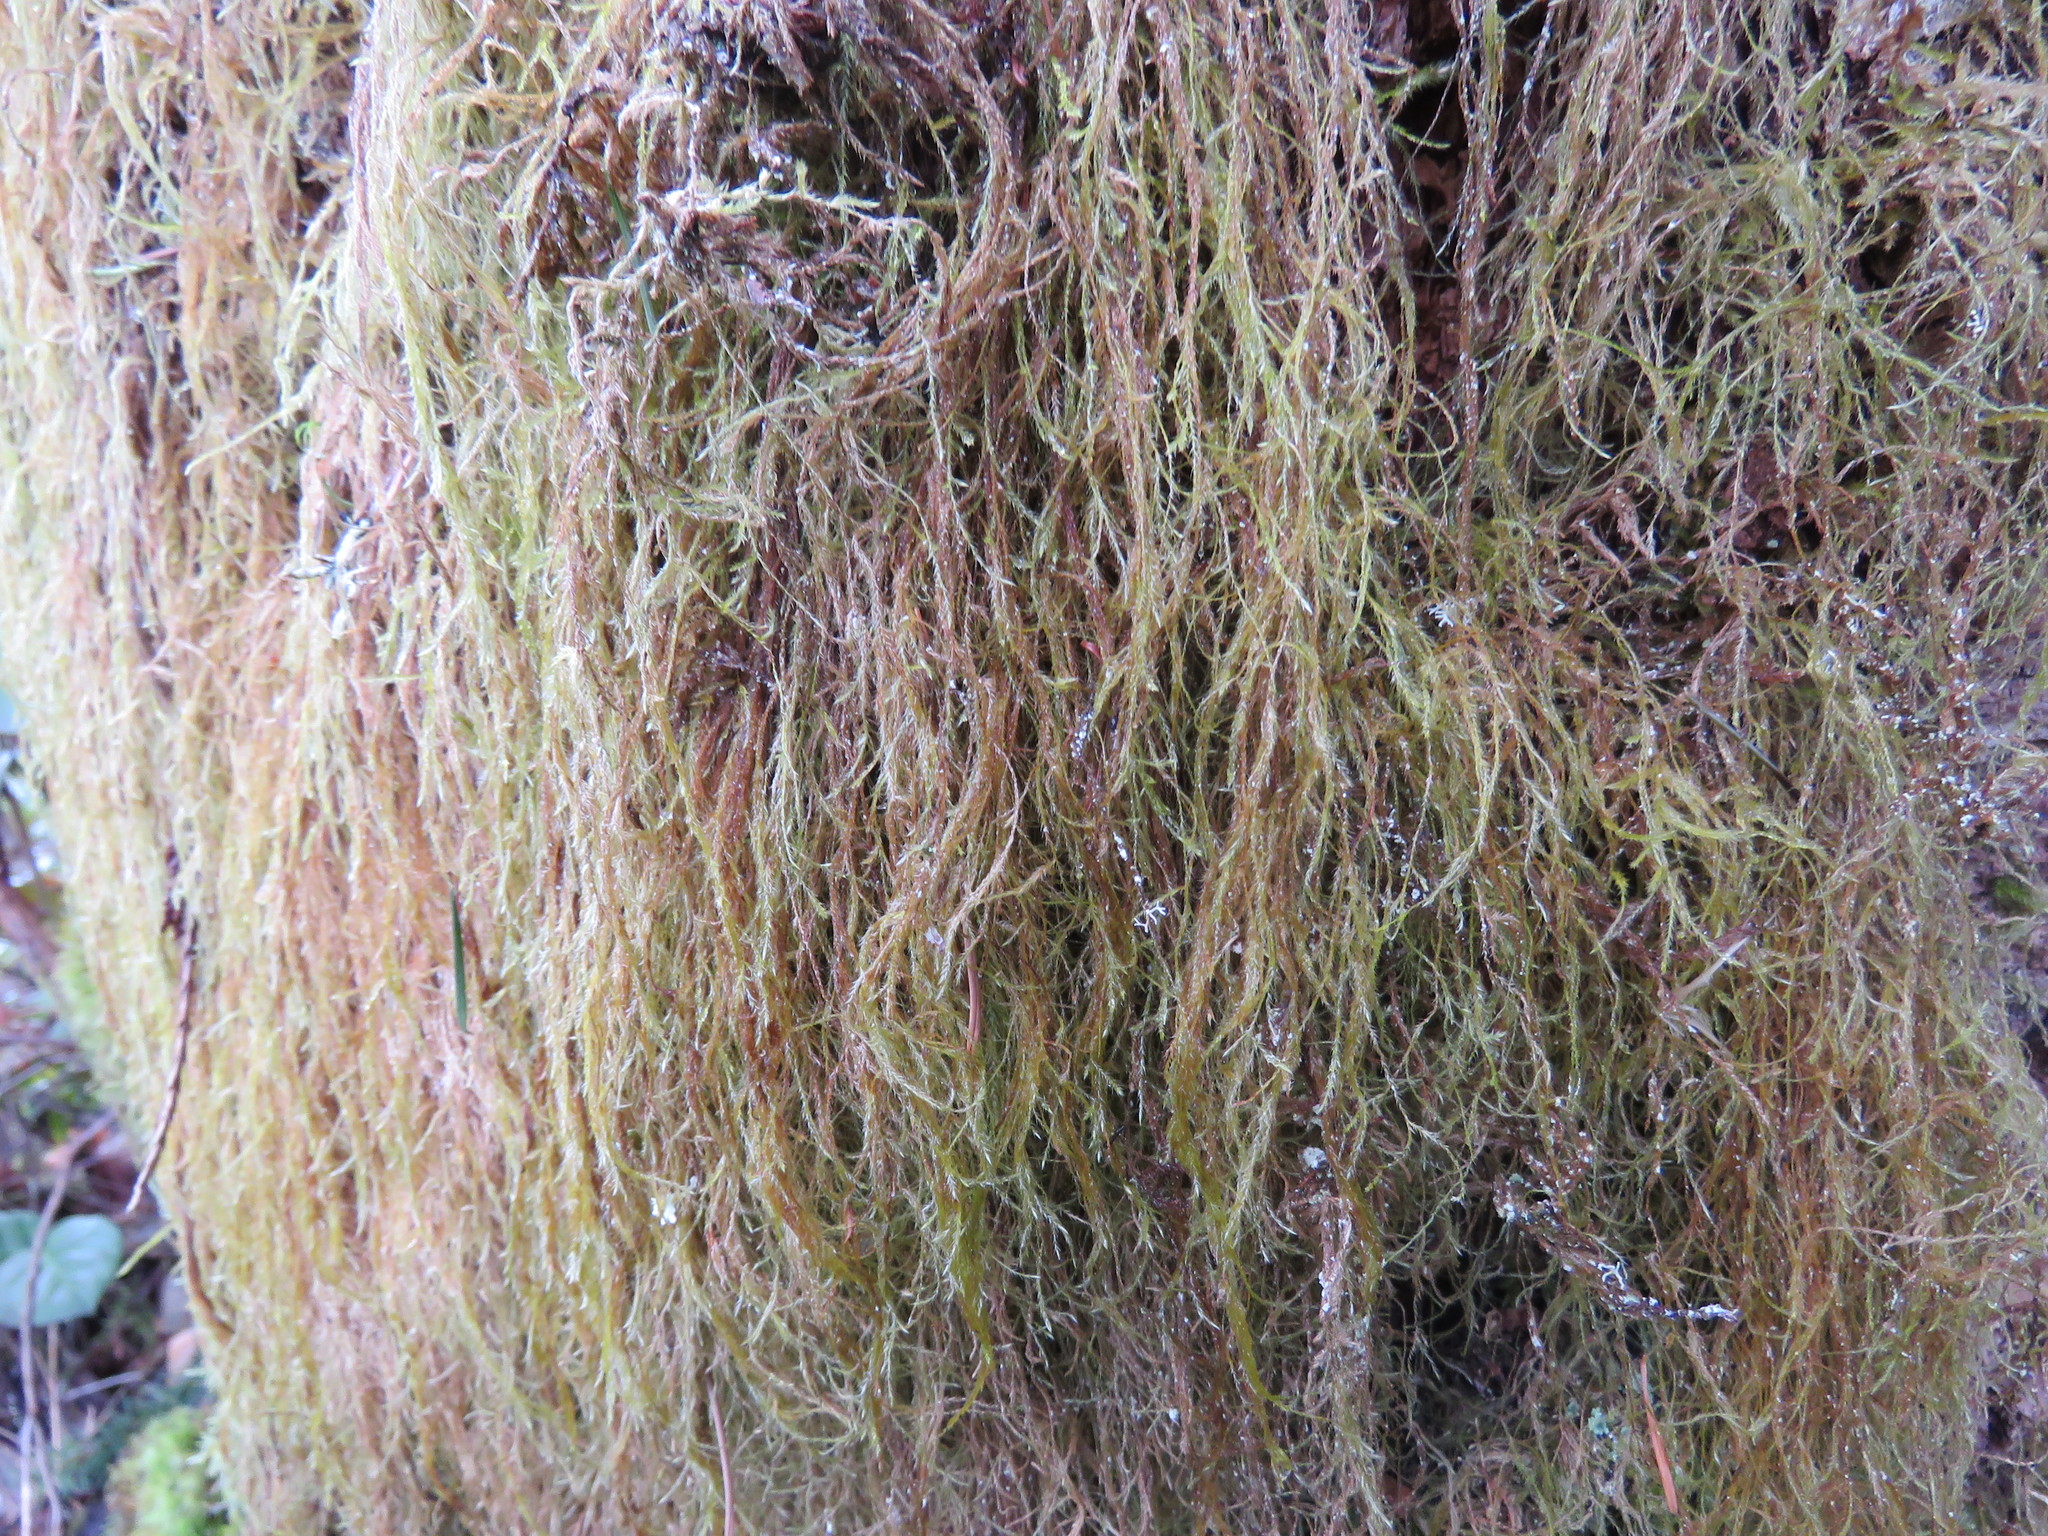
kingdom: Plantae
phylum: Bryophyta
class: Bryopsida
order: Hypnales
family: Lembophyllaceae
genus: Pseudisothecium
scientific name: Pseudisothecium stoloniferum
